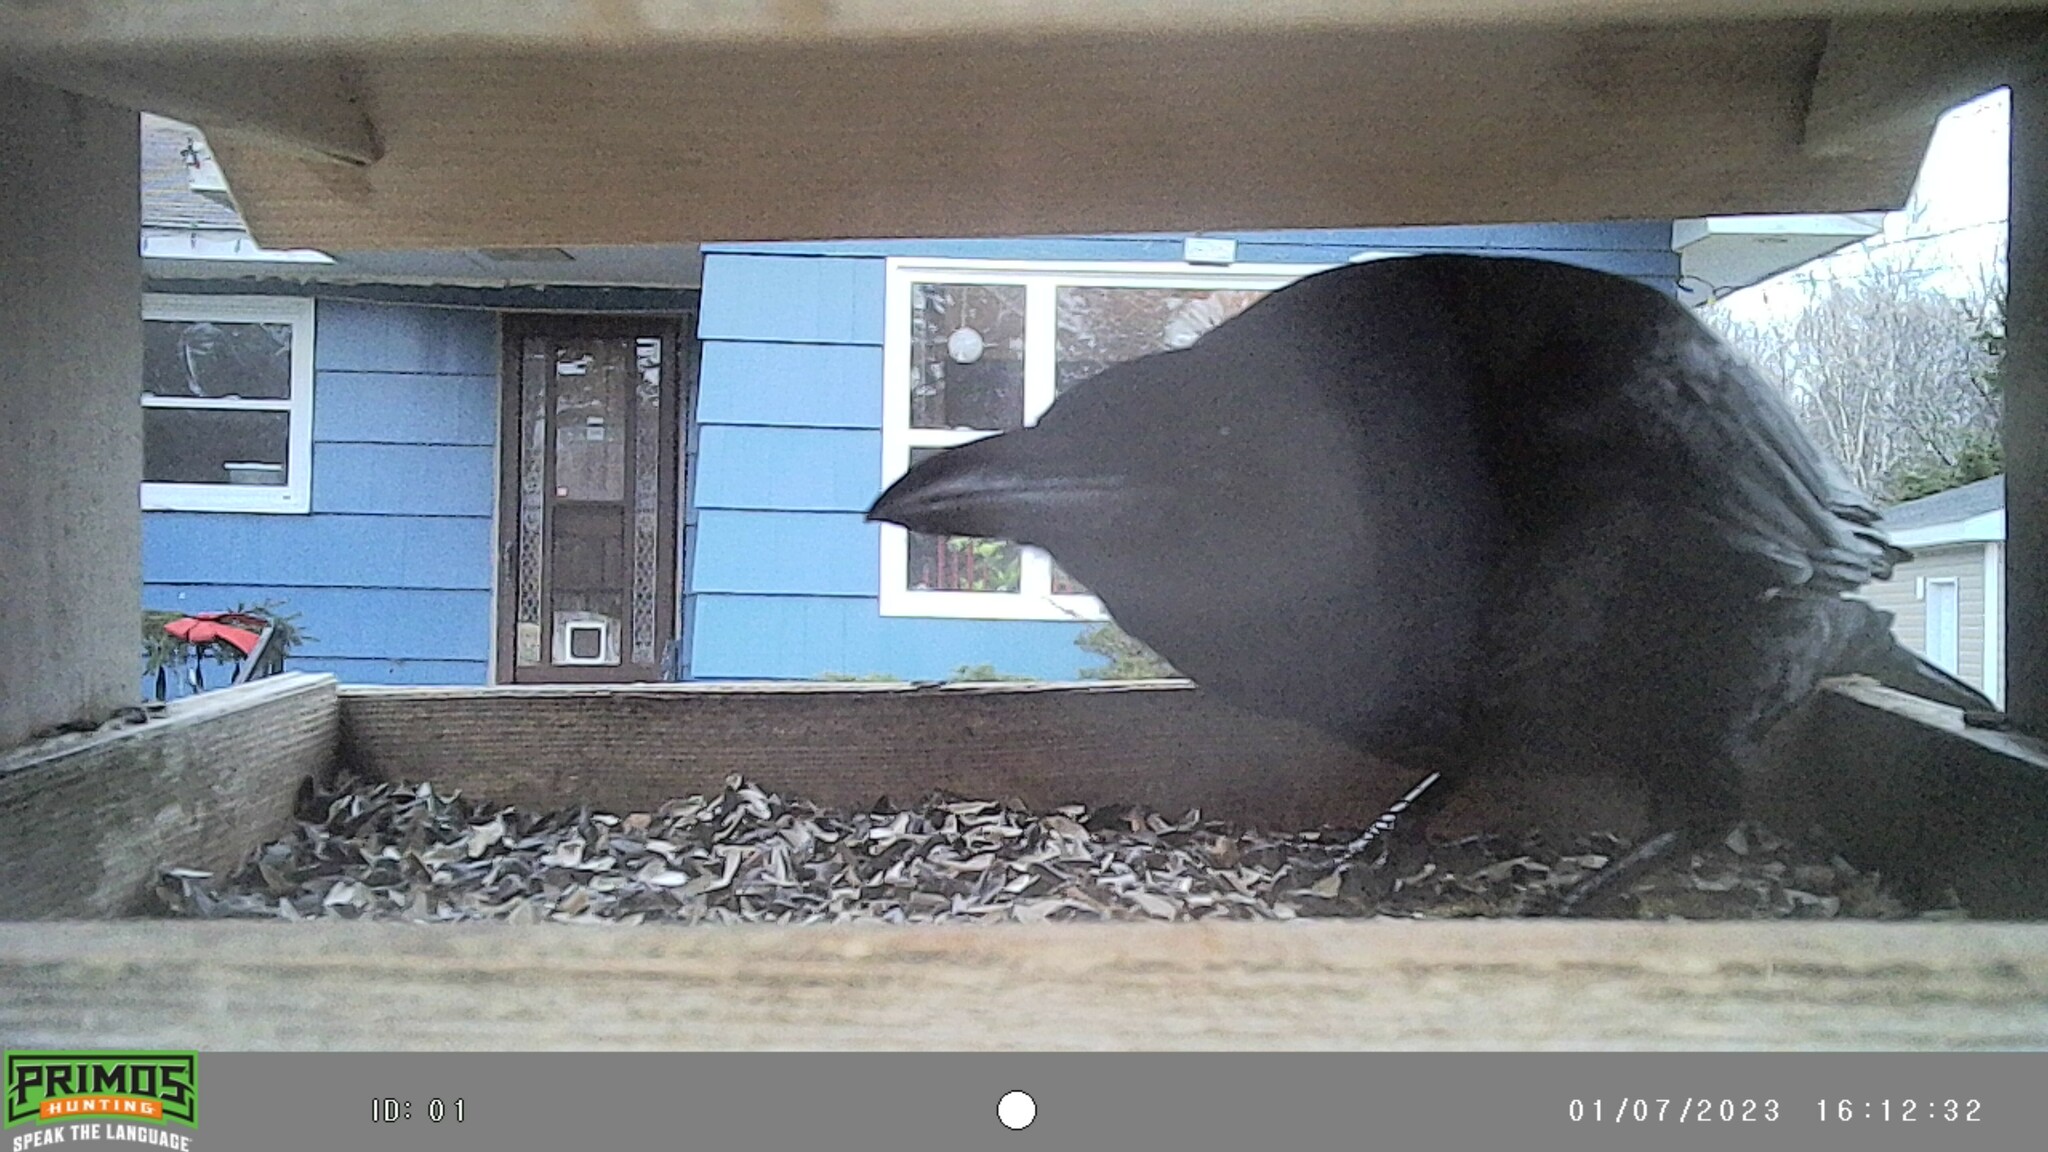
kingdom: Animalia
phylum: Chordata
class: Aves
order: Passeriformes
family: Corvidae
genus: Corvus
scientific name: Corvus brachyrhynchos
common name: American crow
